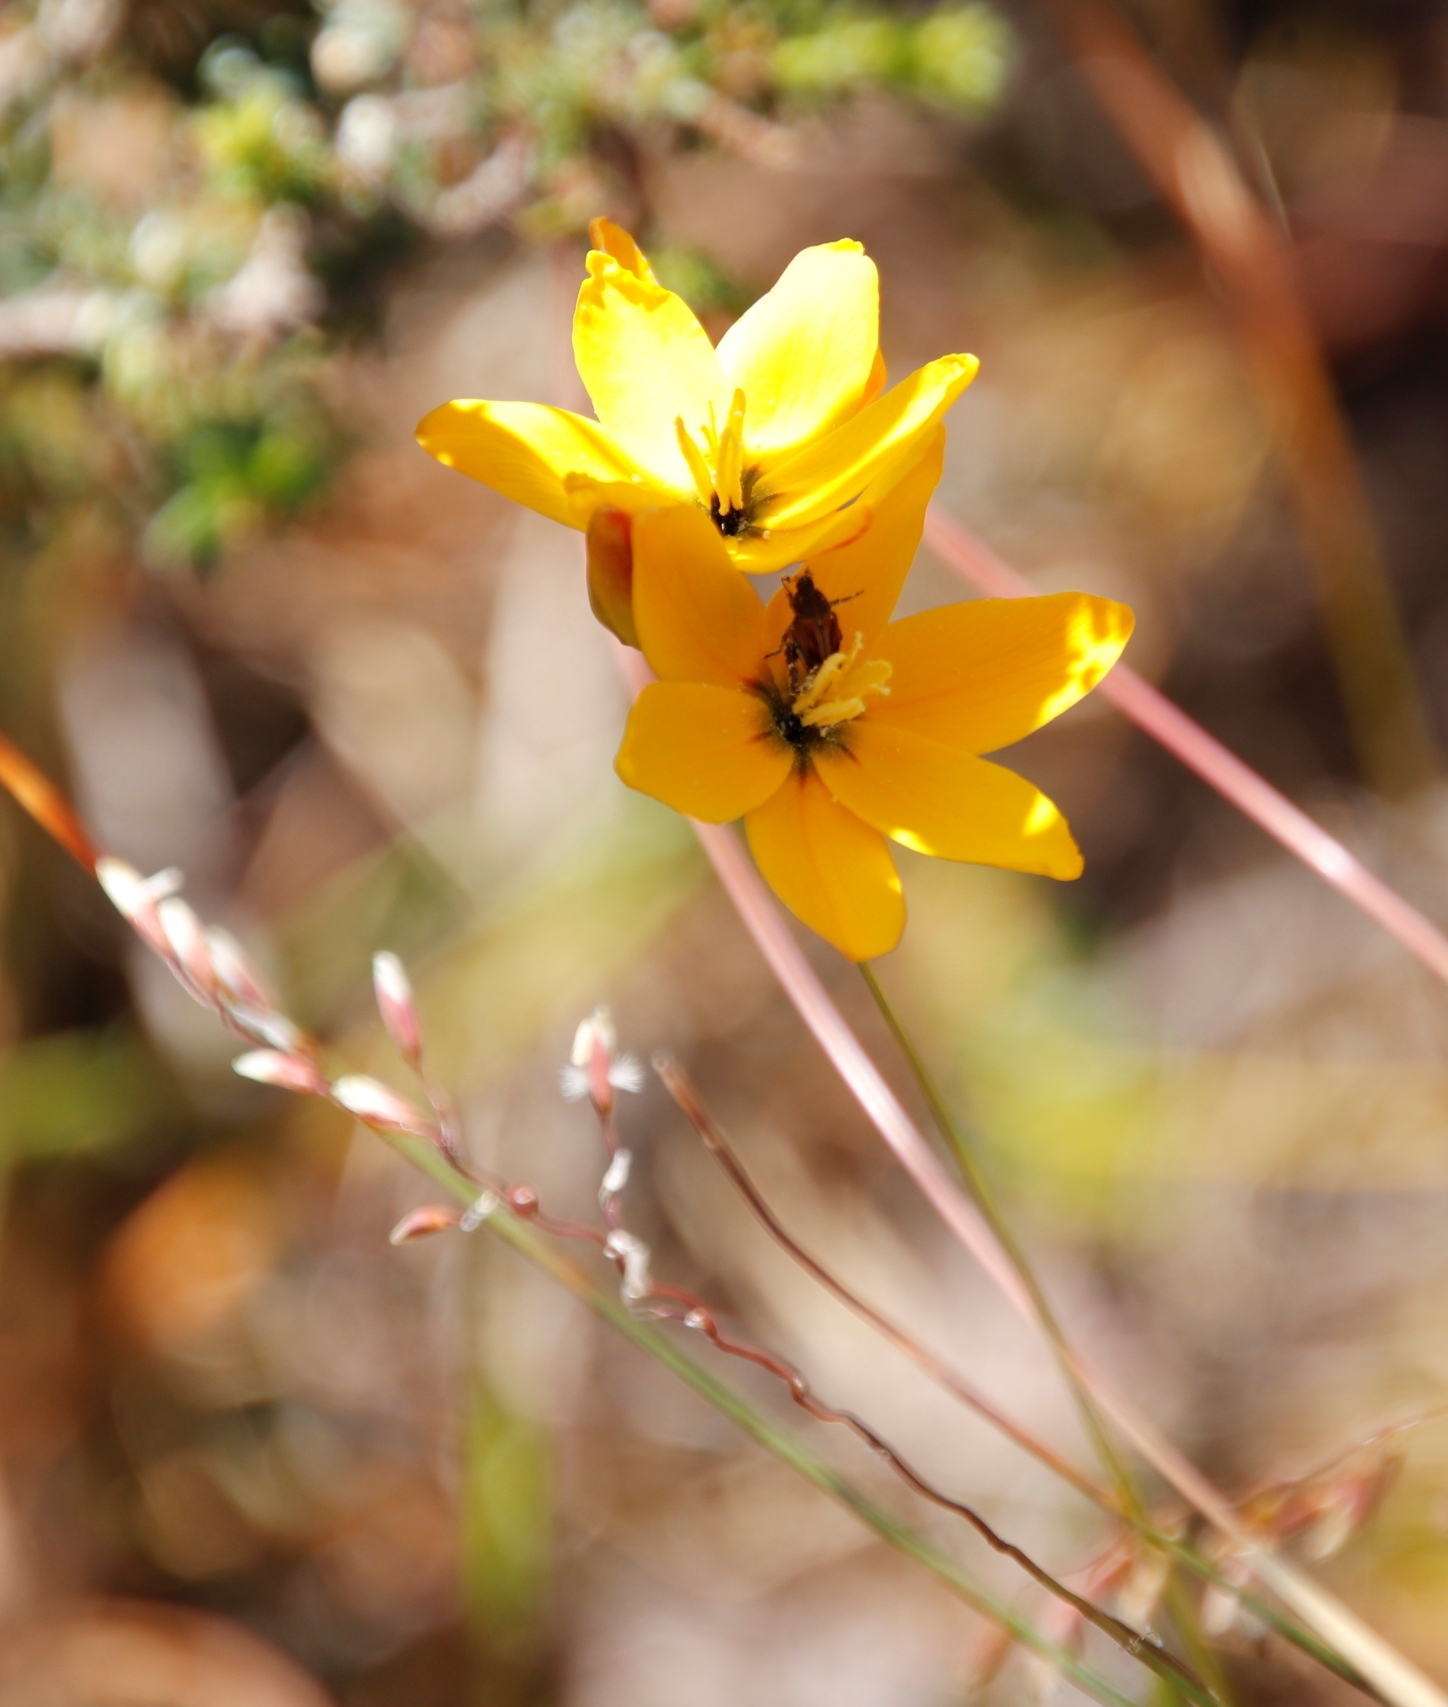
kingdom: Plantae
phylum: Tracheophyta
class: Liliopsida
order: Asparagales
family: Iridaceae
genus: Ixia
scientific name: Ixia dubia
